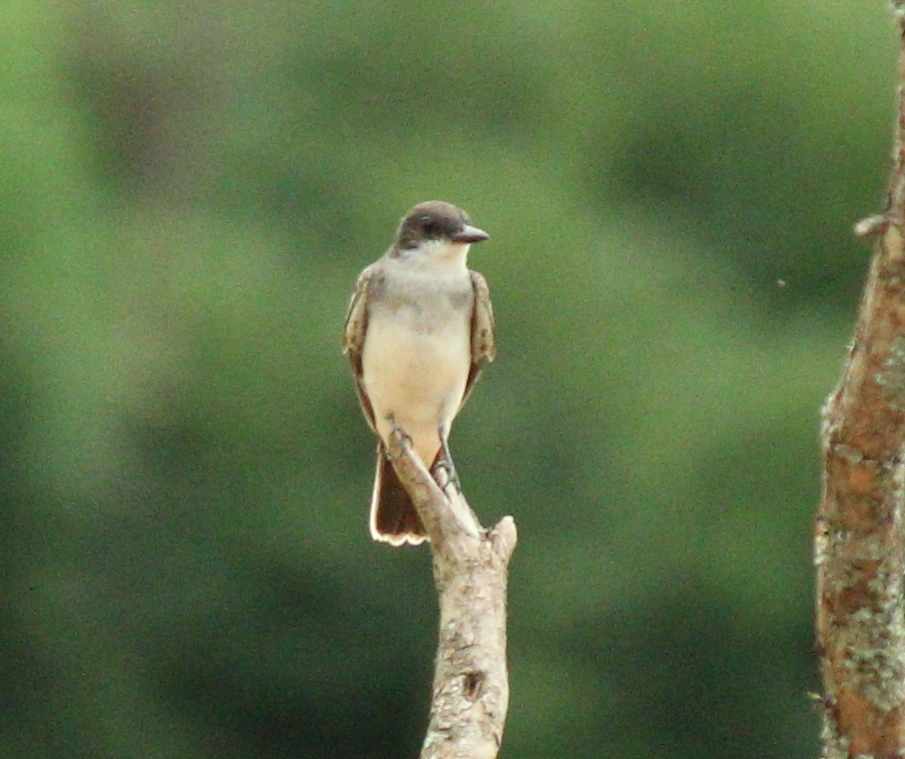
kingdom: Animalia
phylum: Chordata
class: Aves
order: Passeriformes
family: Tyrannidae
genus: Tyrannus
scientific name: Tyrannus tyrannus
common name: Eastern kingbird
